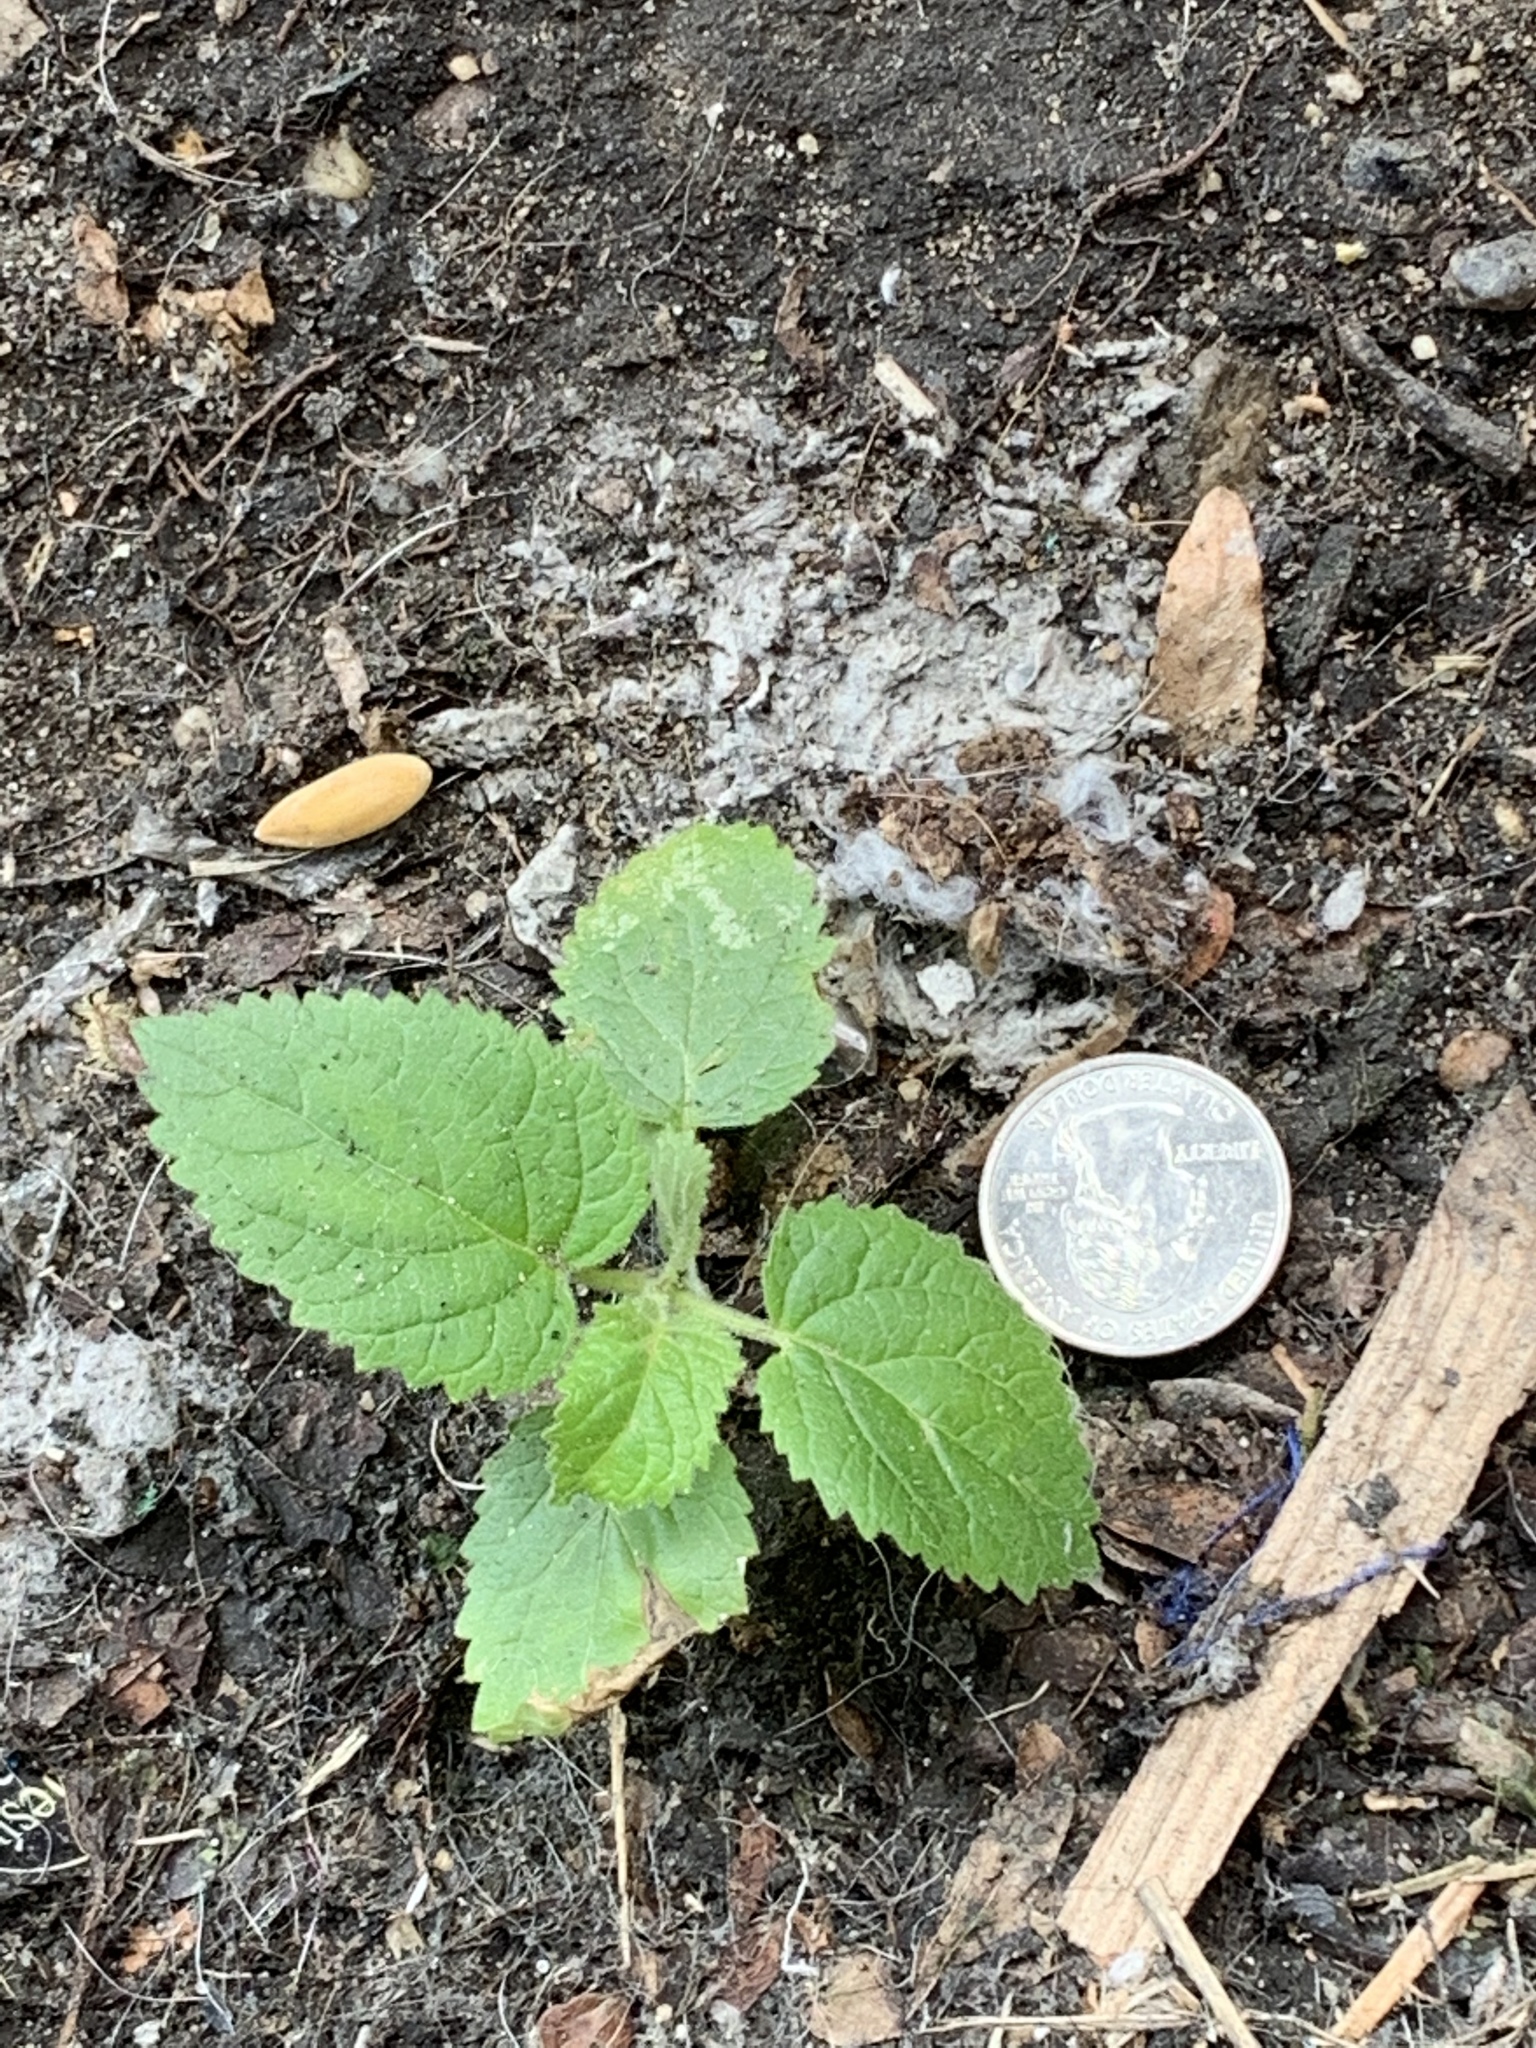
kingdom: Plantae
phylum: Tracheophyta
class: Magnoliopsida
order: Lamiales
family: Paulowniaceae
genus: Paulownia
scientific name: Paulownia tomentosa
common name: Foxglove-tree
